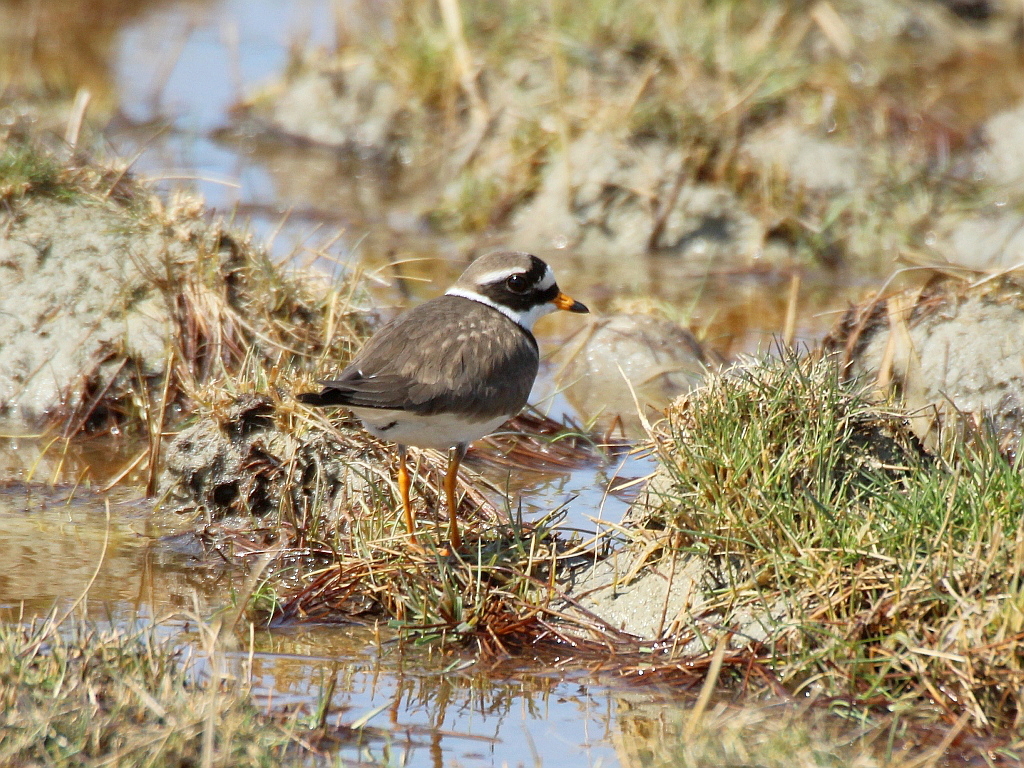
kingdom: Animalia
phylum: Chordata
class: Aves
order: Charadriiformes
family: Charadriidae
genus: Charadrius
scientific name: Charadrius hiaticula
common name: Common ringed plover
